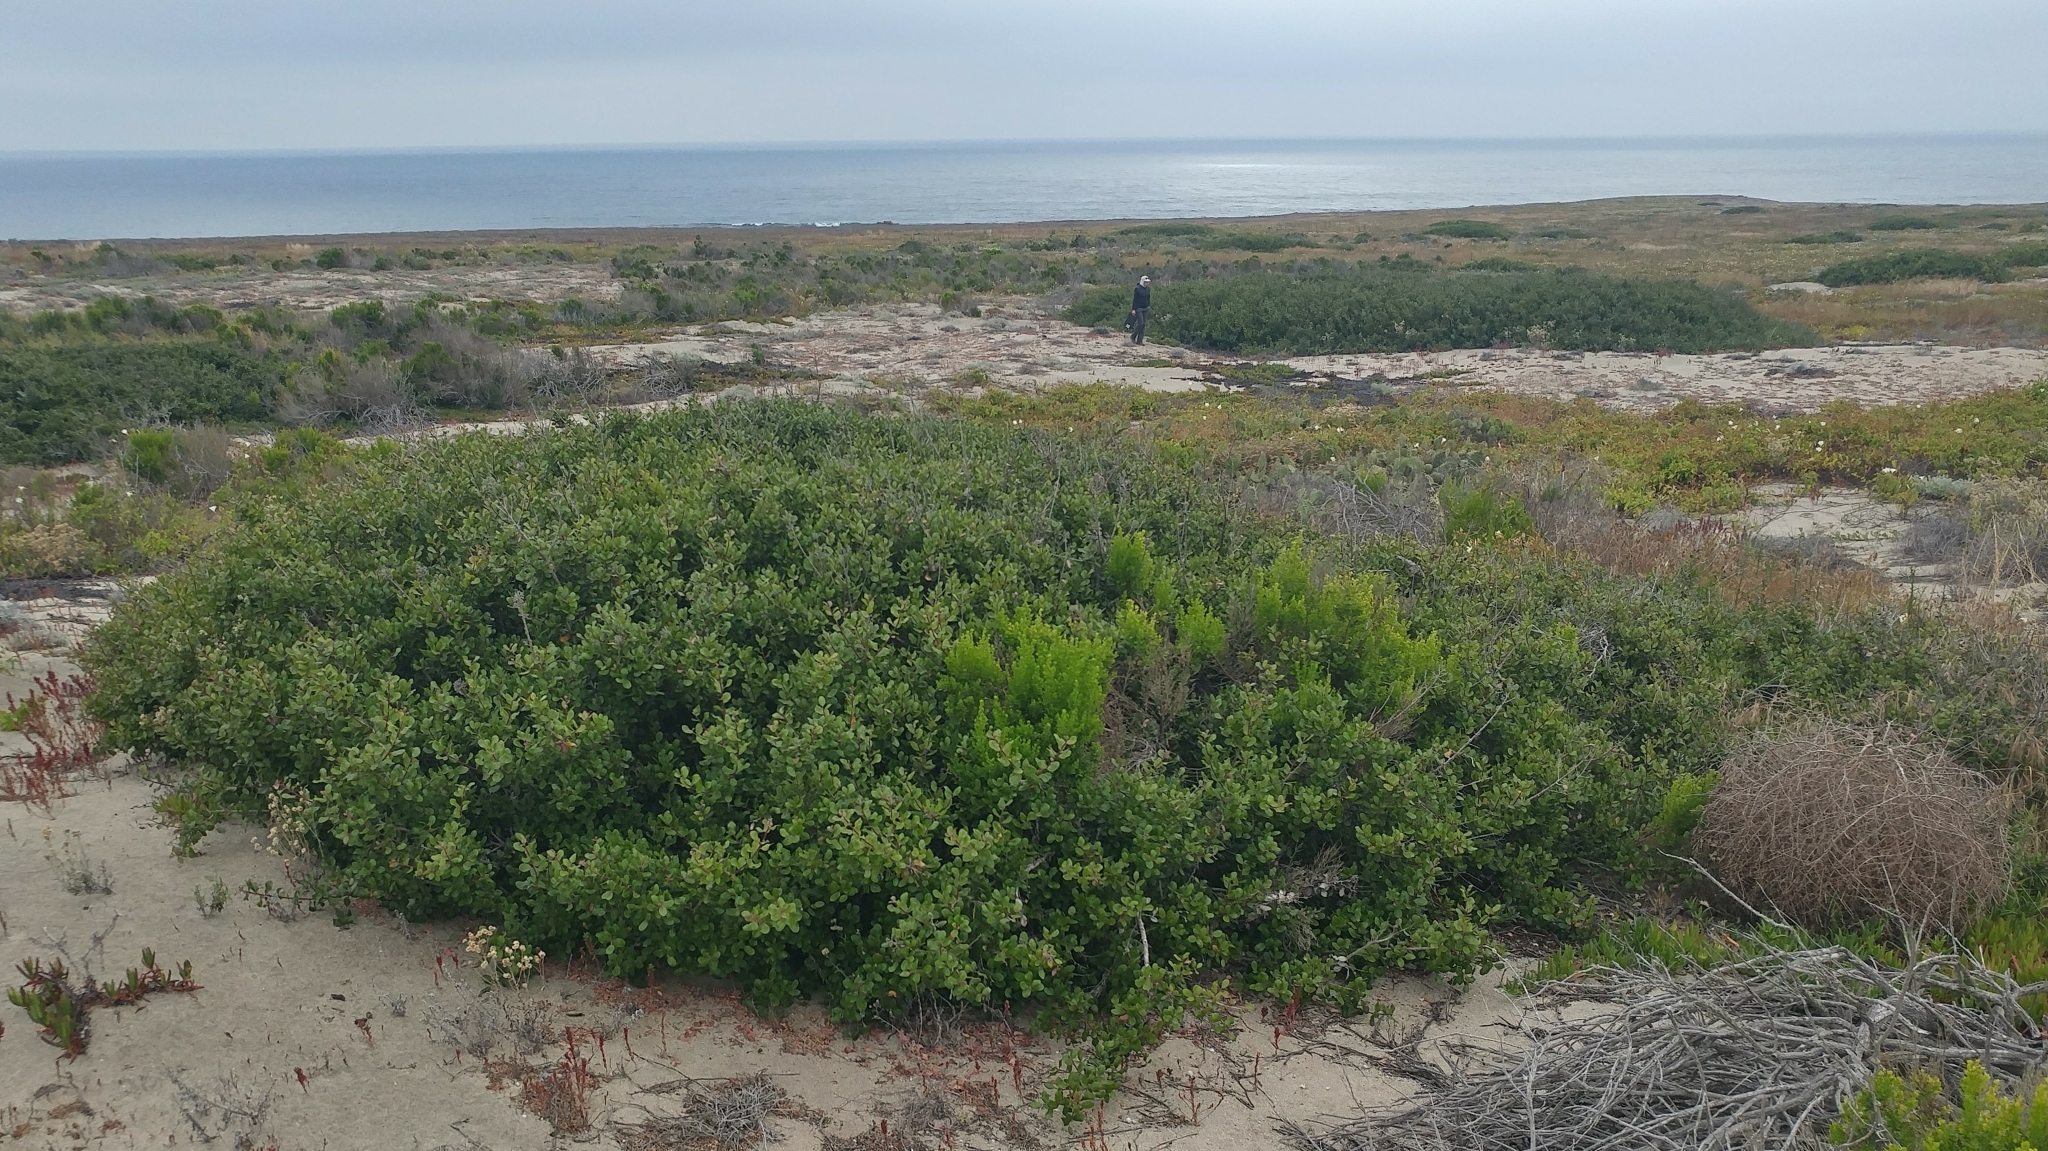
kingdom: Plantae
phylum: Tracheophyta
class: Magnoliopsida
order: Sapindales
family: Anacardiaceae
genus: Rhus
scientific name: Rhus integrifolia
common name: Lemonade sumac
